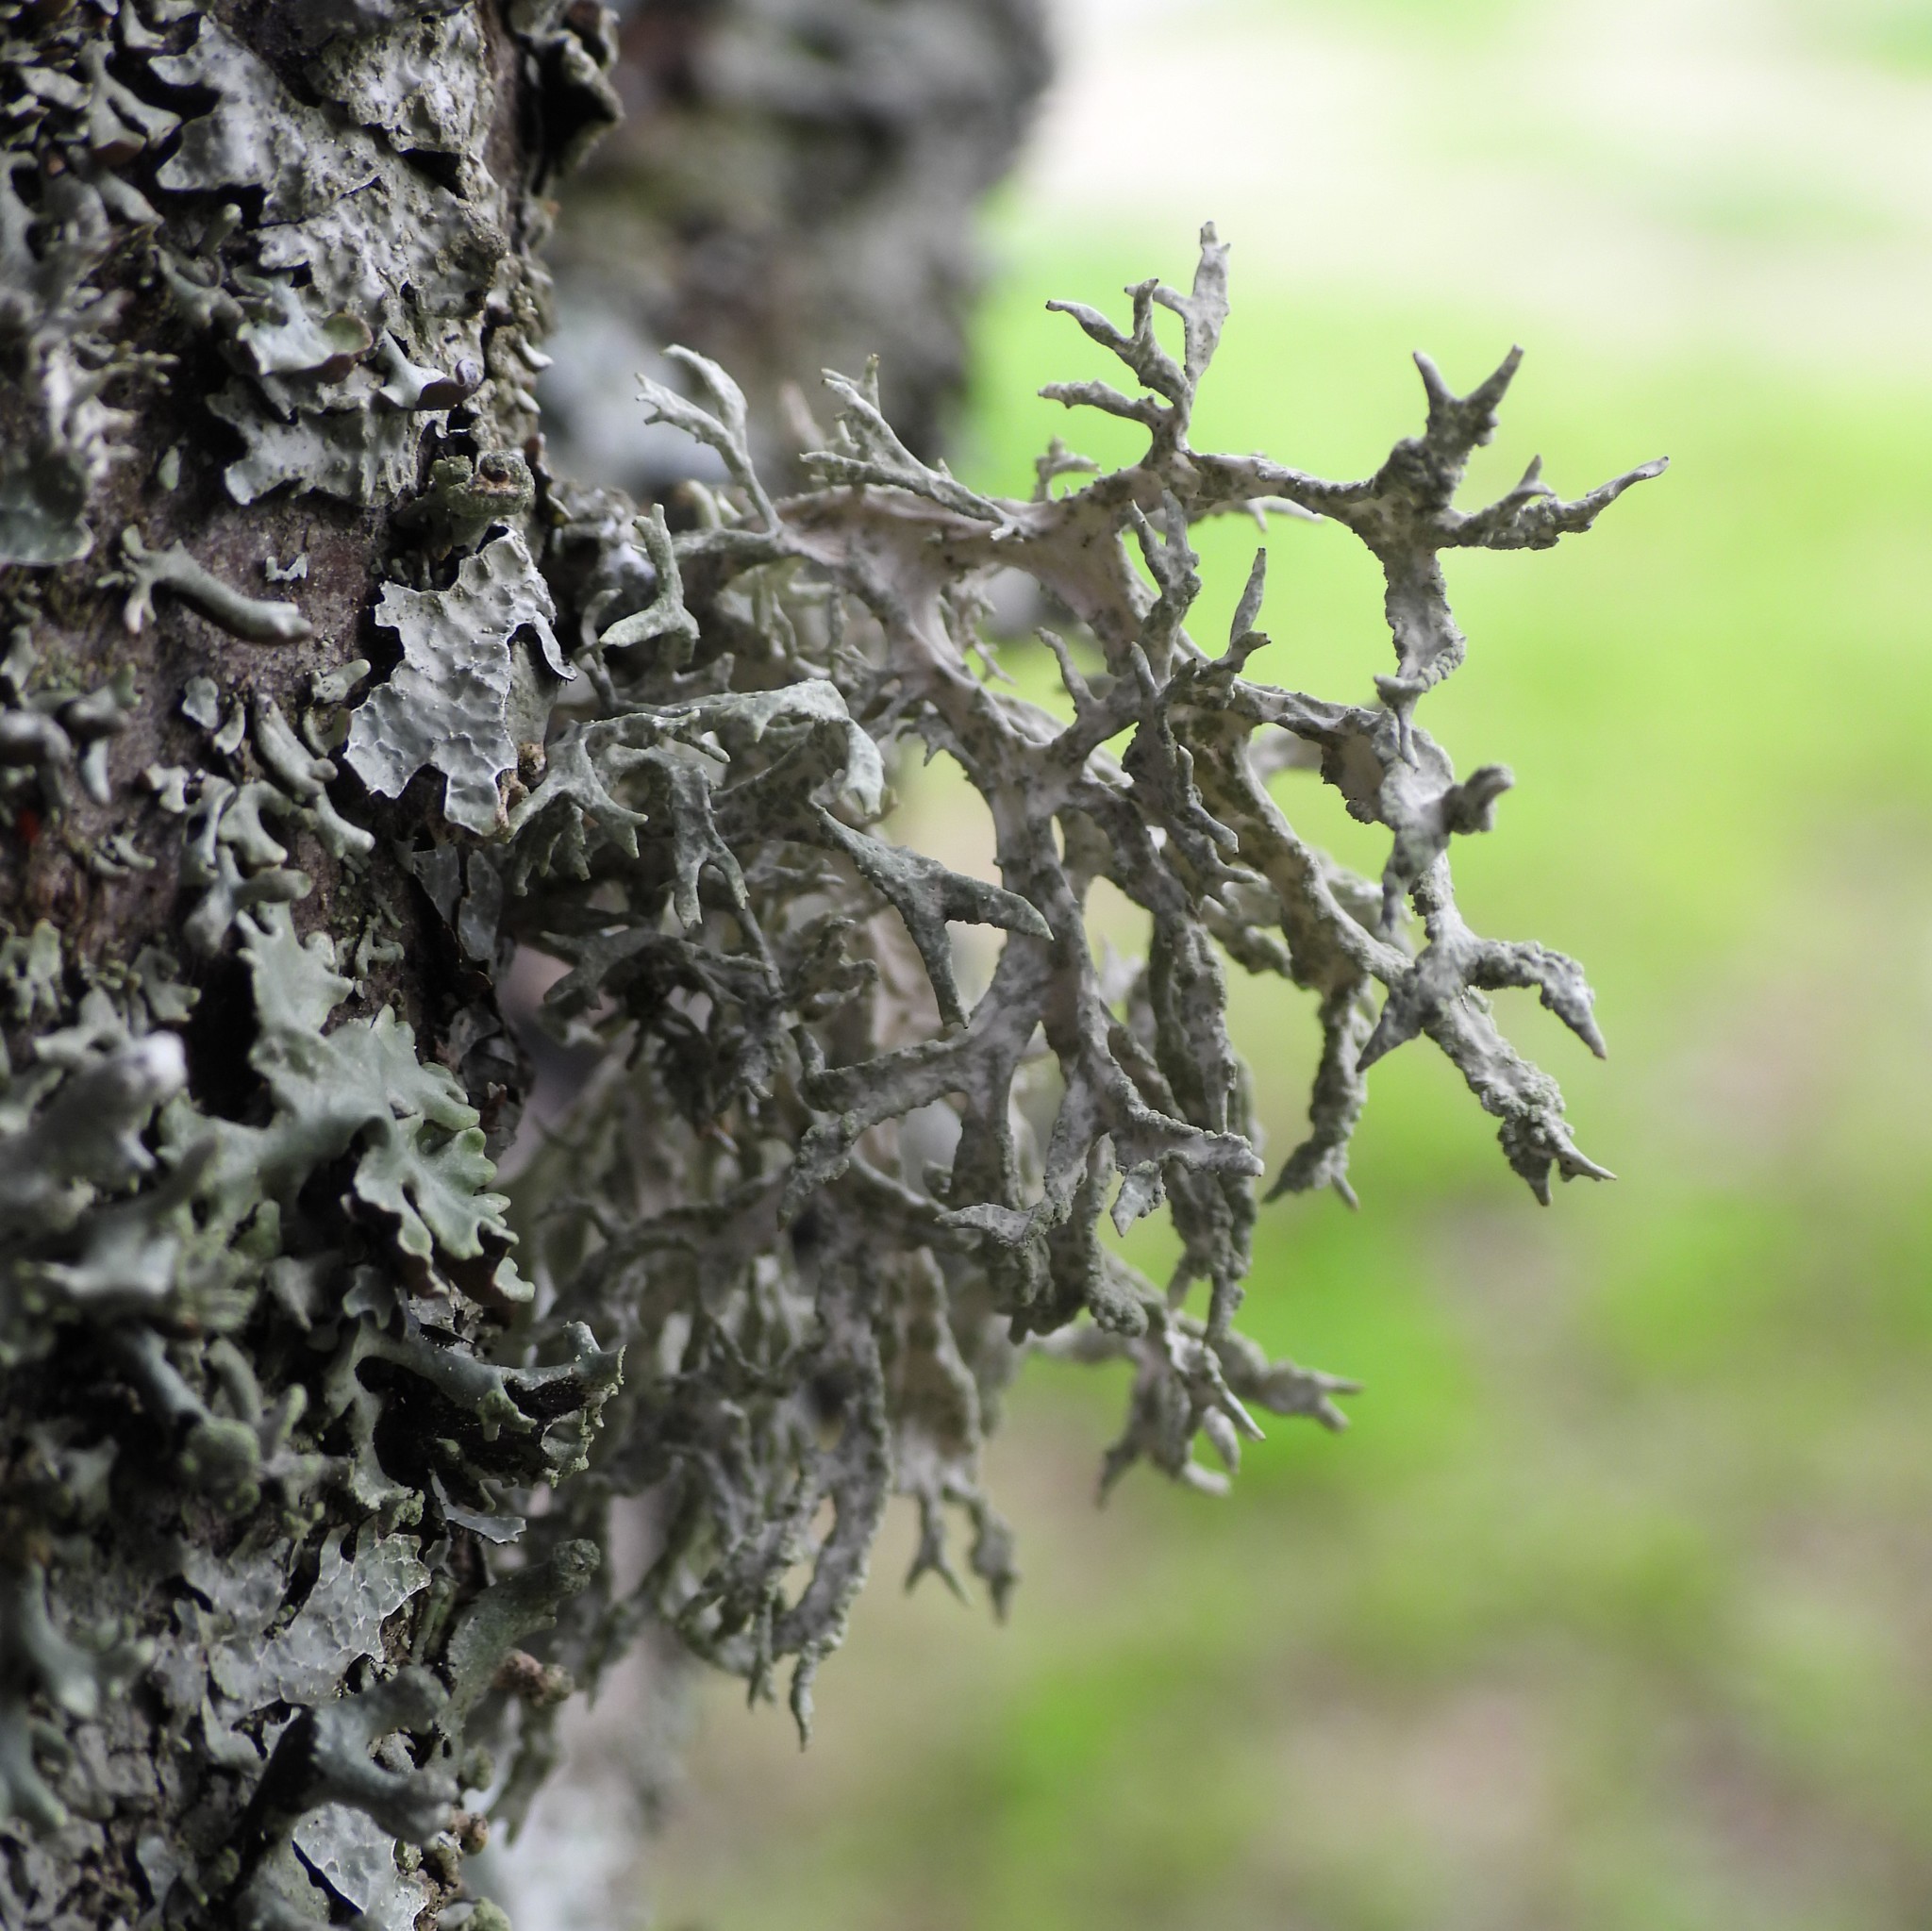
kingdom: Fungi
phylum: Ascomycota
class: Lecanoromycetes
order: Lecanorales
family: Parmeliaceae
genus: Evernia
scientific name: Evernia prunastri
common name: Oak moss
